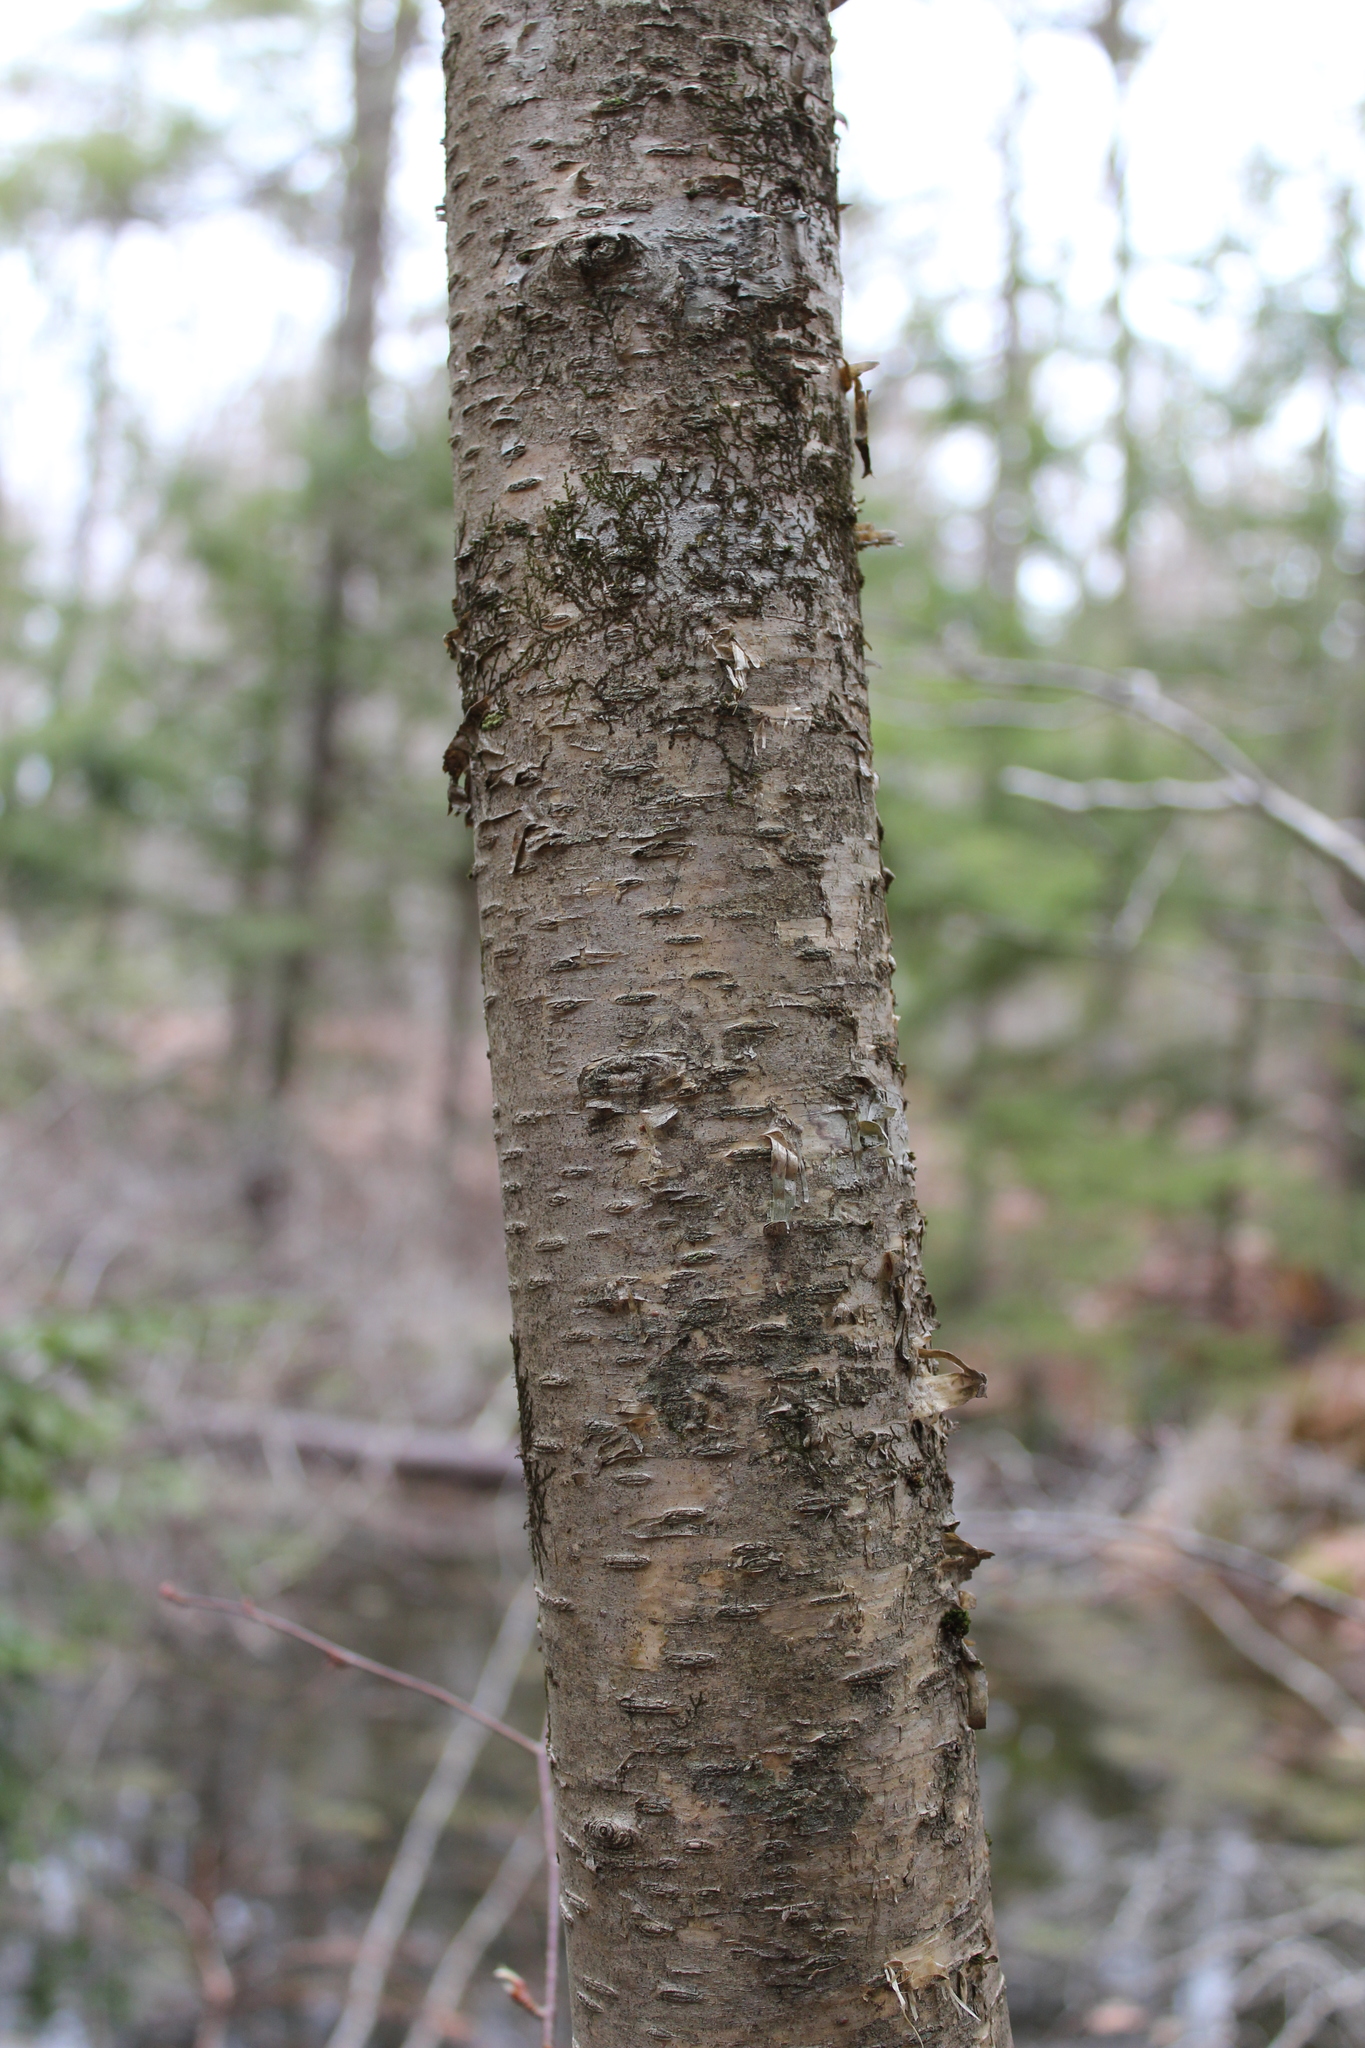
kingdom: Plantae
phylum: Tracheophyta
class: Magnoliopsida
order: Fagales
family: Betulaceae
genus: Betula
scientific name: Betula alleghaniensis
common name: Yellow birch
